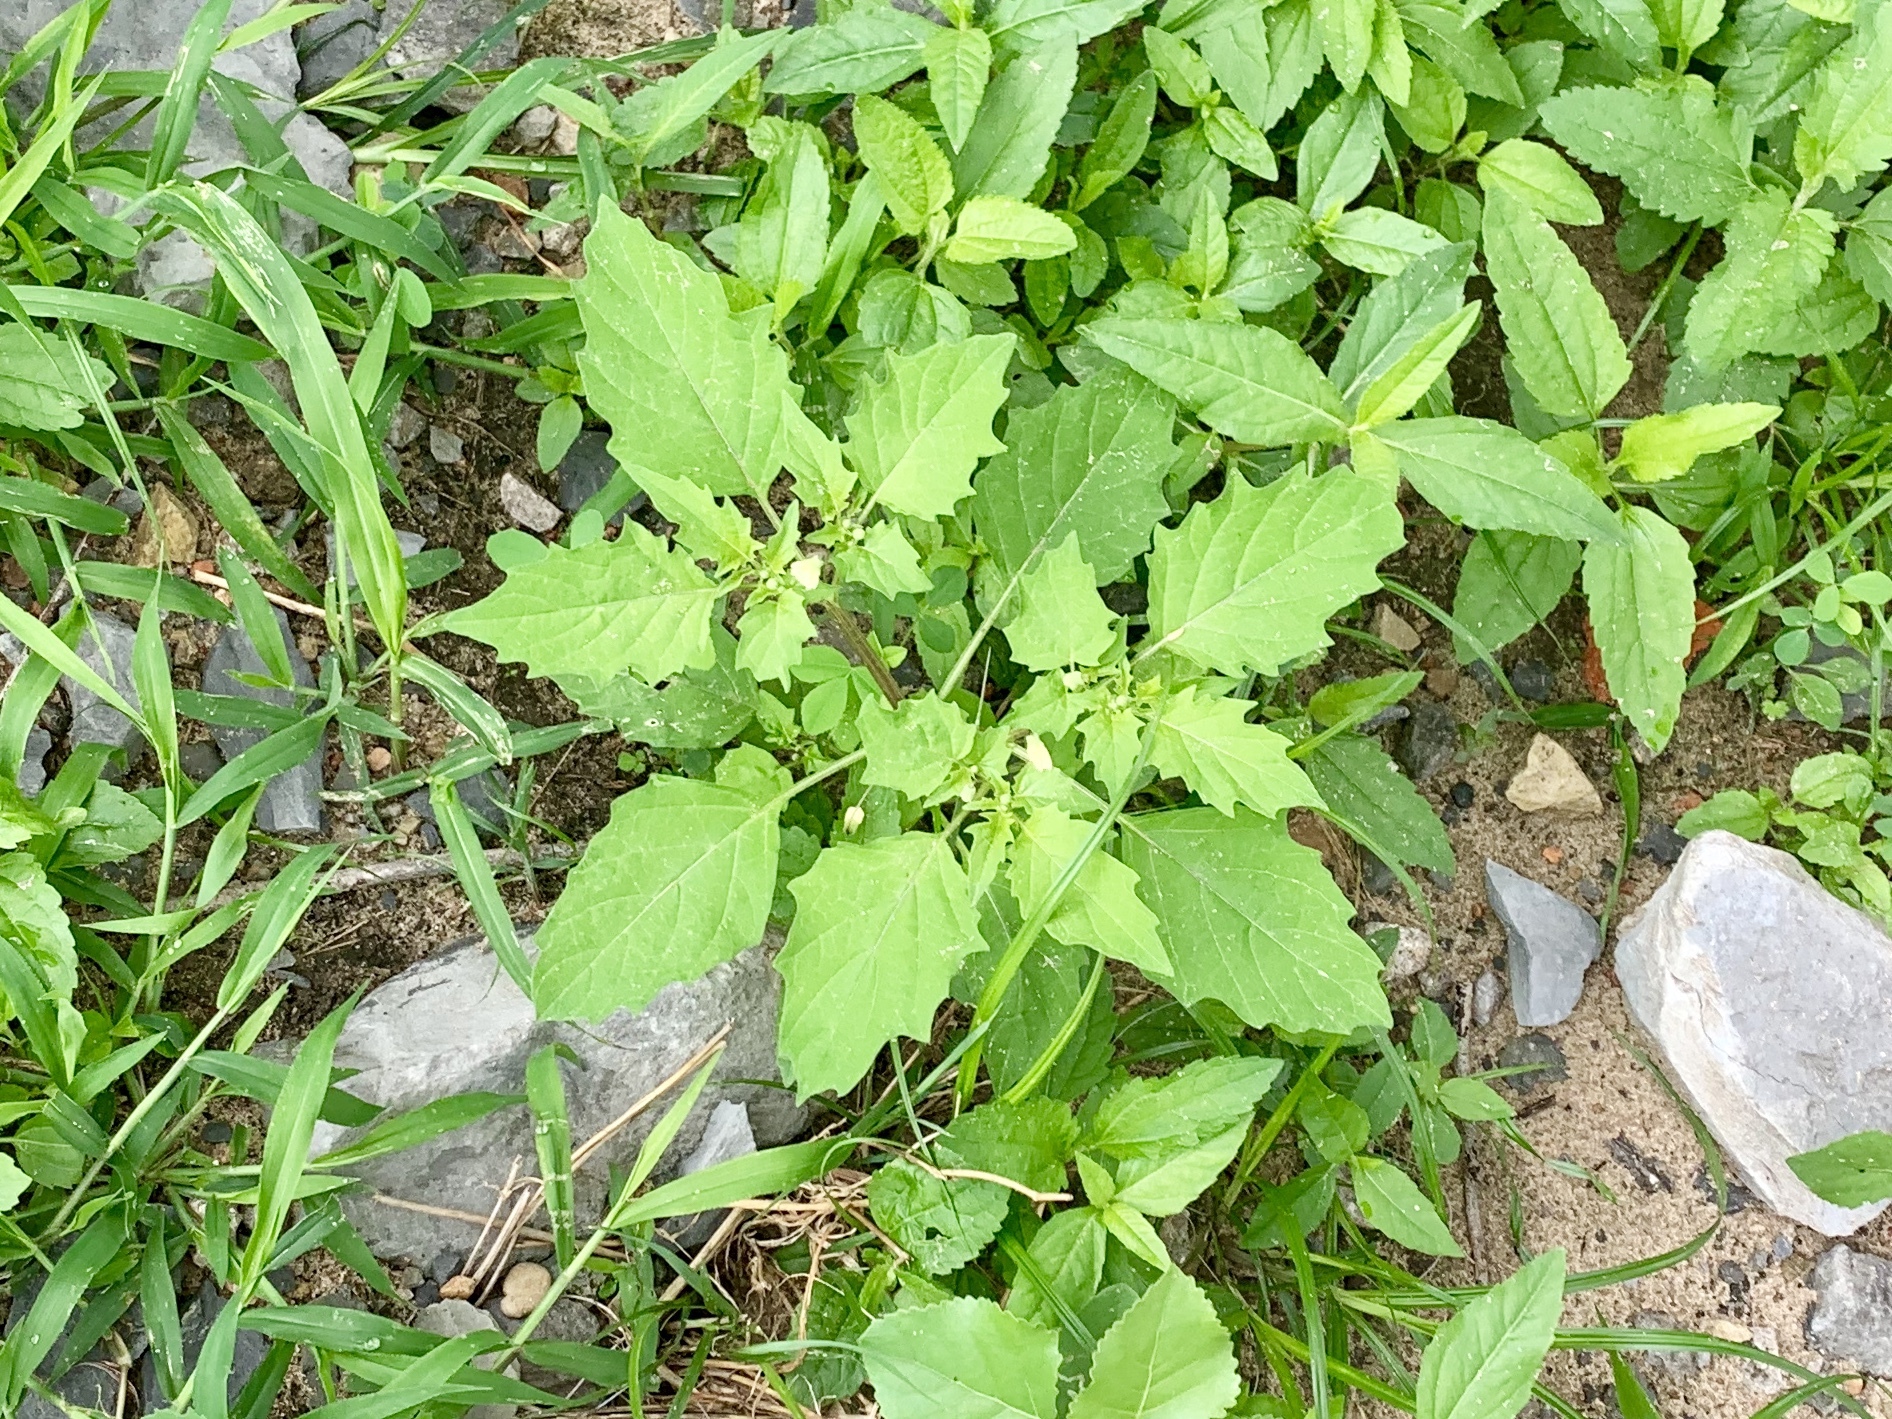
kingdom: Plantae
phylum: Tracheophyta
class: Magnoliopsida
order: Solanales
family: Solanaceae
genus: Solanum
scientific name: Solanum emulans
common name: Eastern black nightshade
